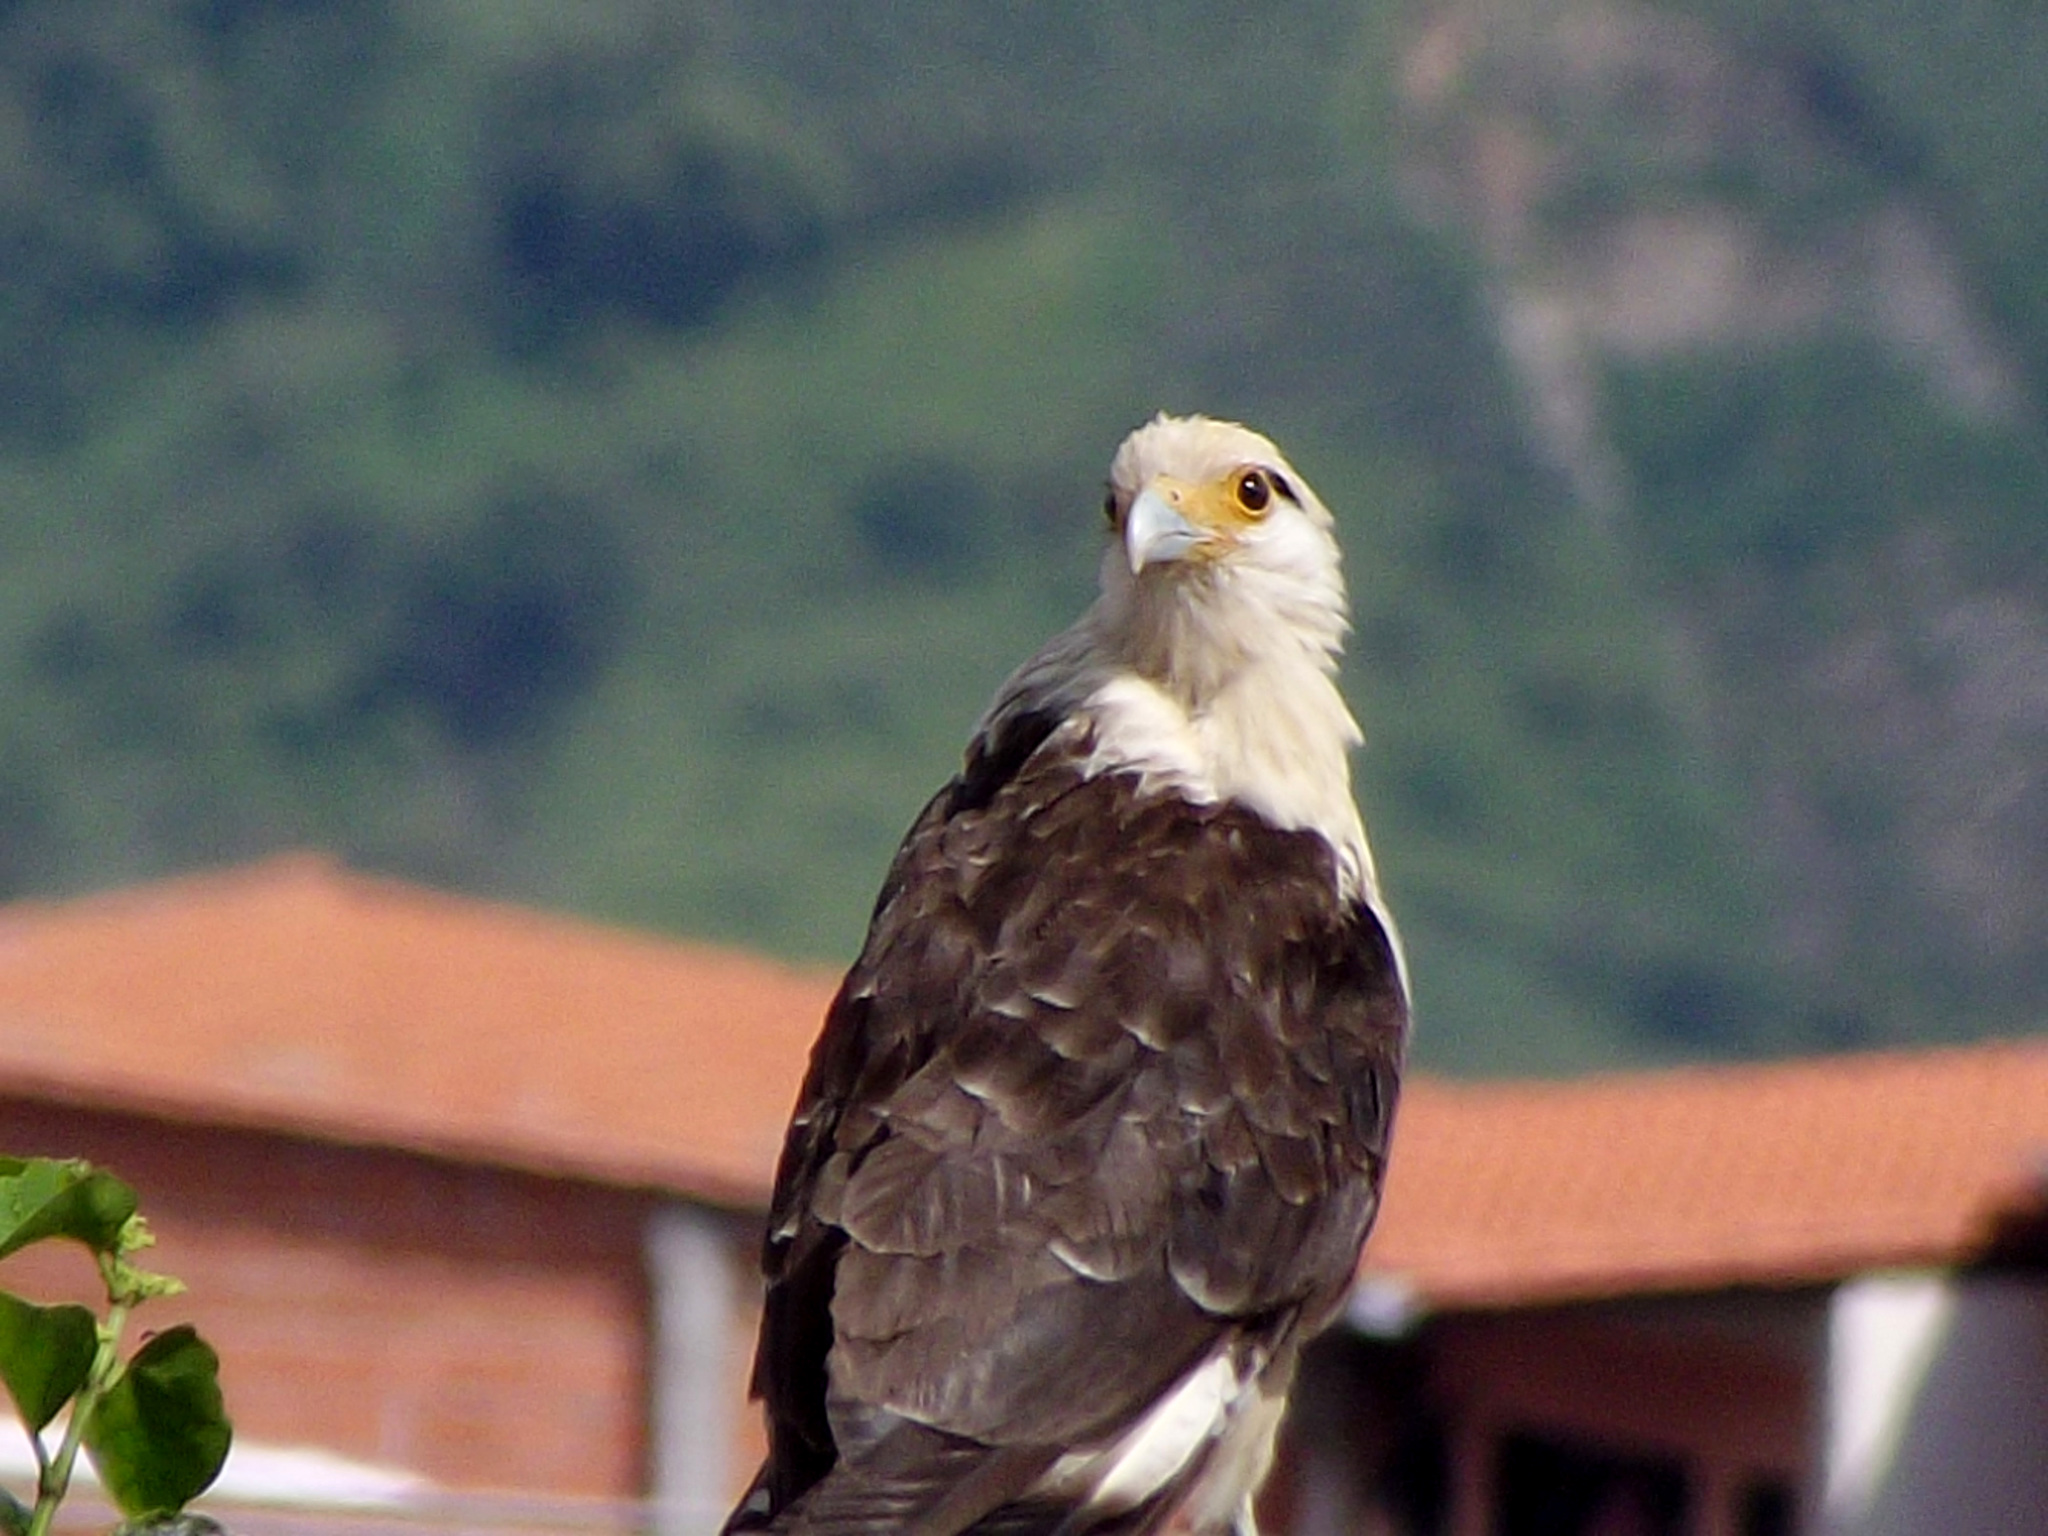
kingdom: Animalia
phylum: Chordata
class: Aves
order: Falconiformes
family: Falconidae
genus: Daptrius
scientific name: Daptrius
